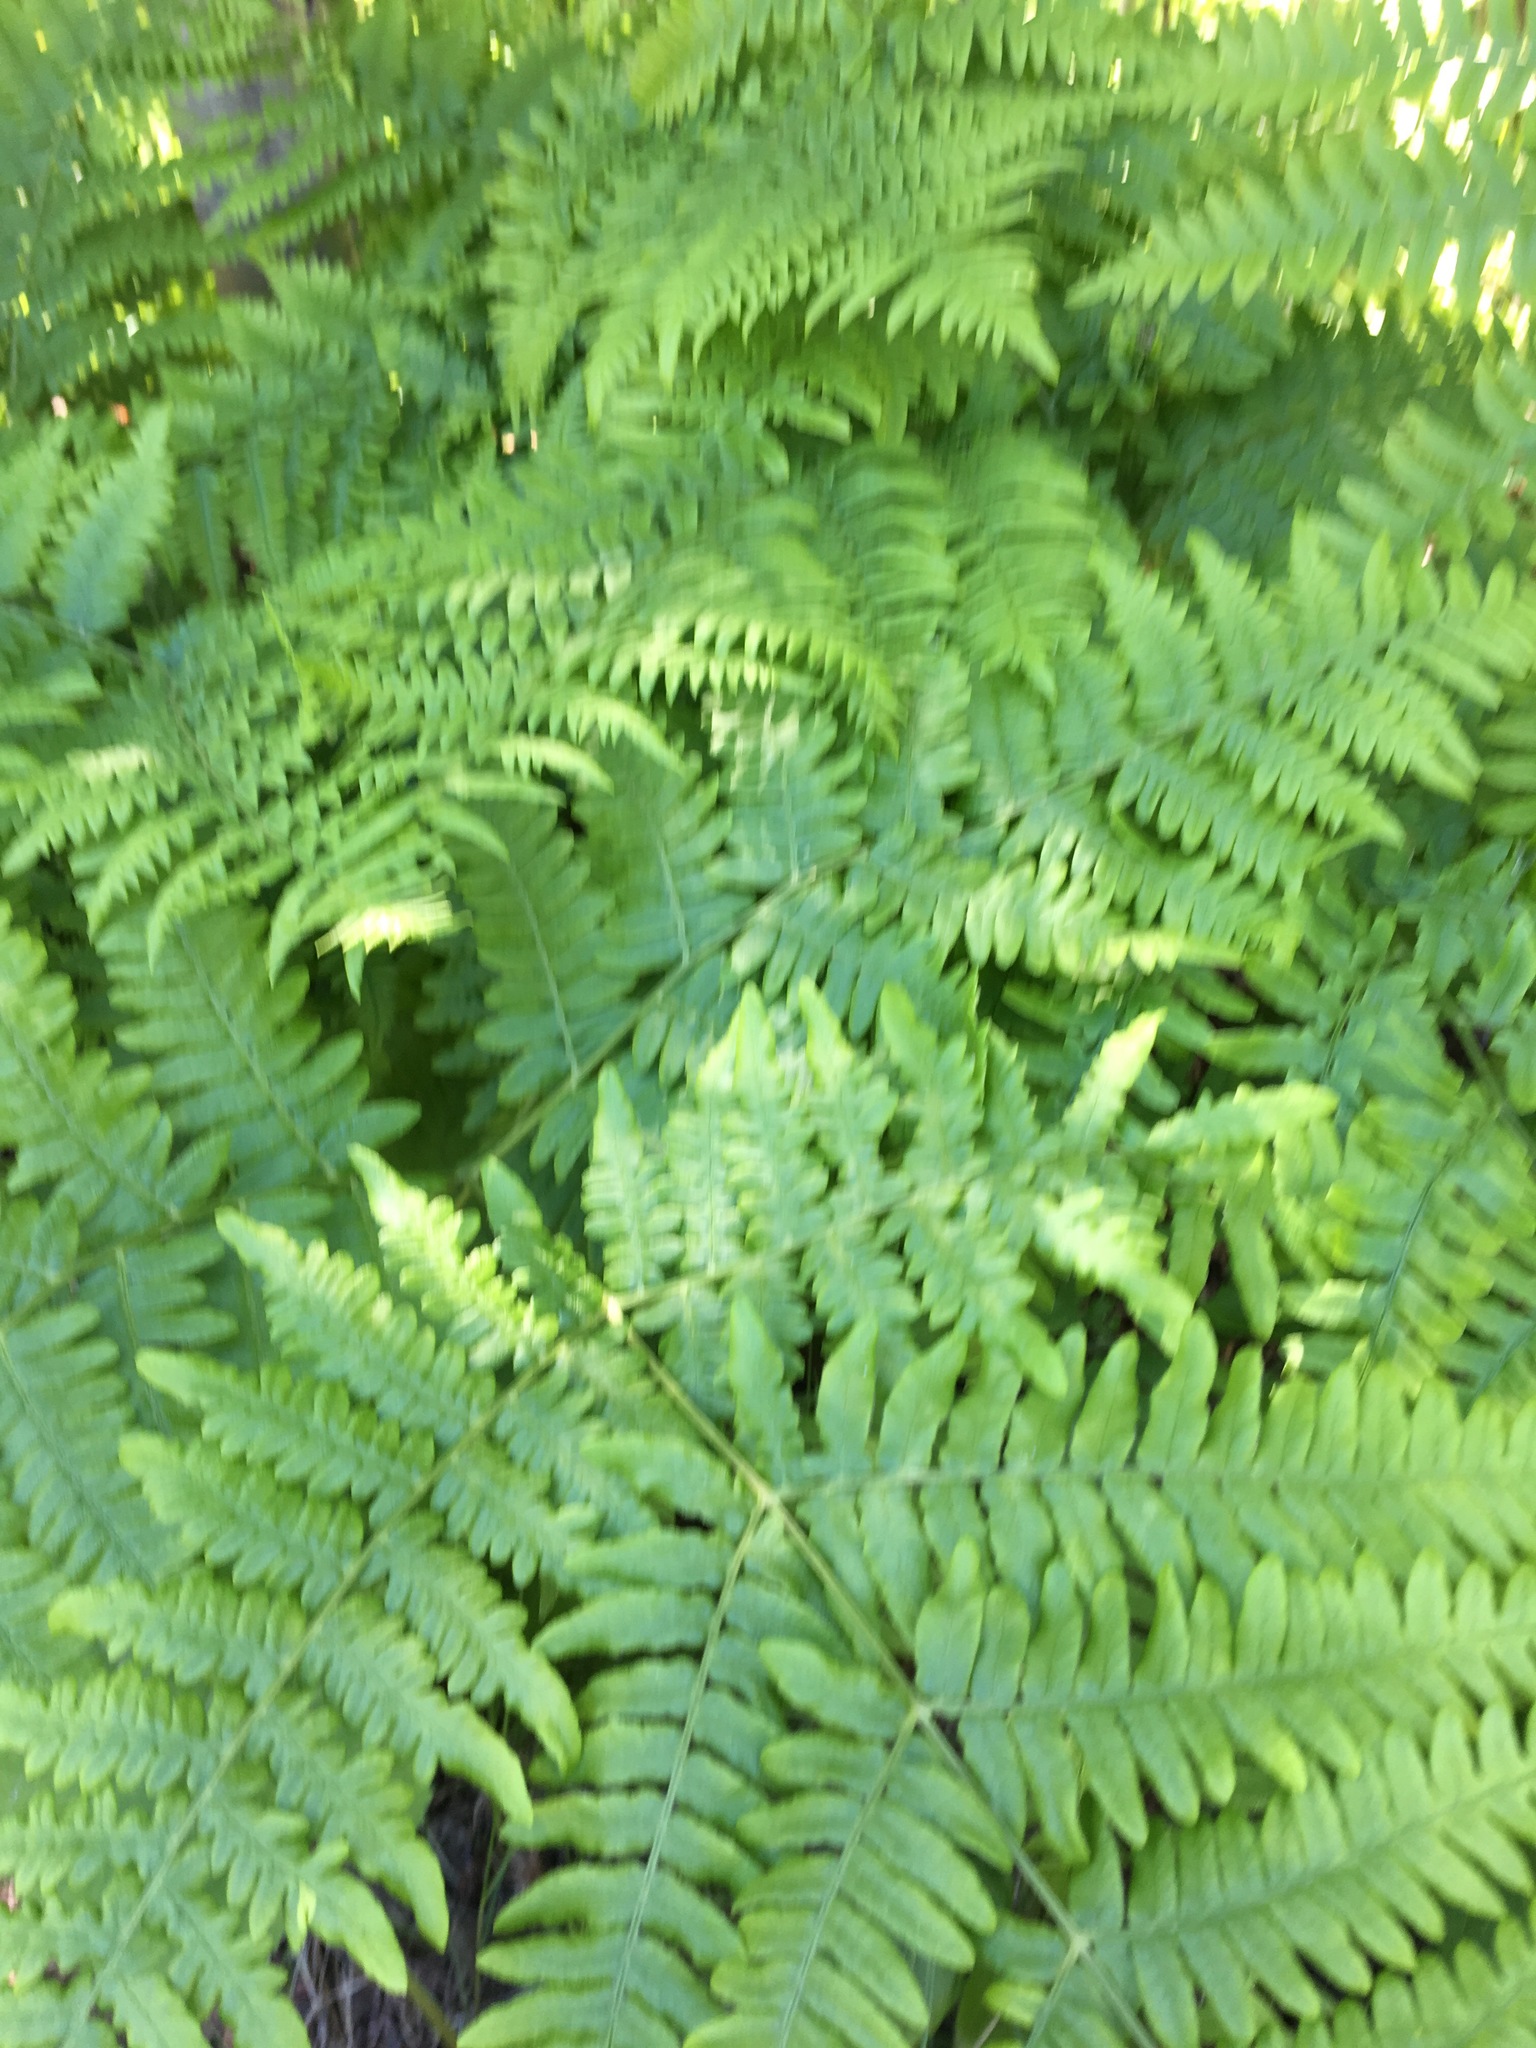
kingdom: Plantae
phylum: Tracheophyta
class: Polypodiopsida
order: Polypodiales
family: Dennstaedtiaceae
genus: Pteridium
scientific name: Pteridium aquilinum
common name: Bracken
